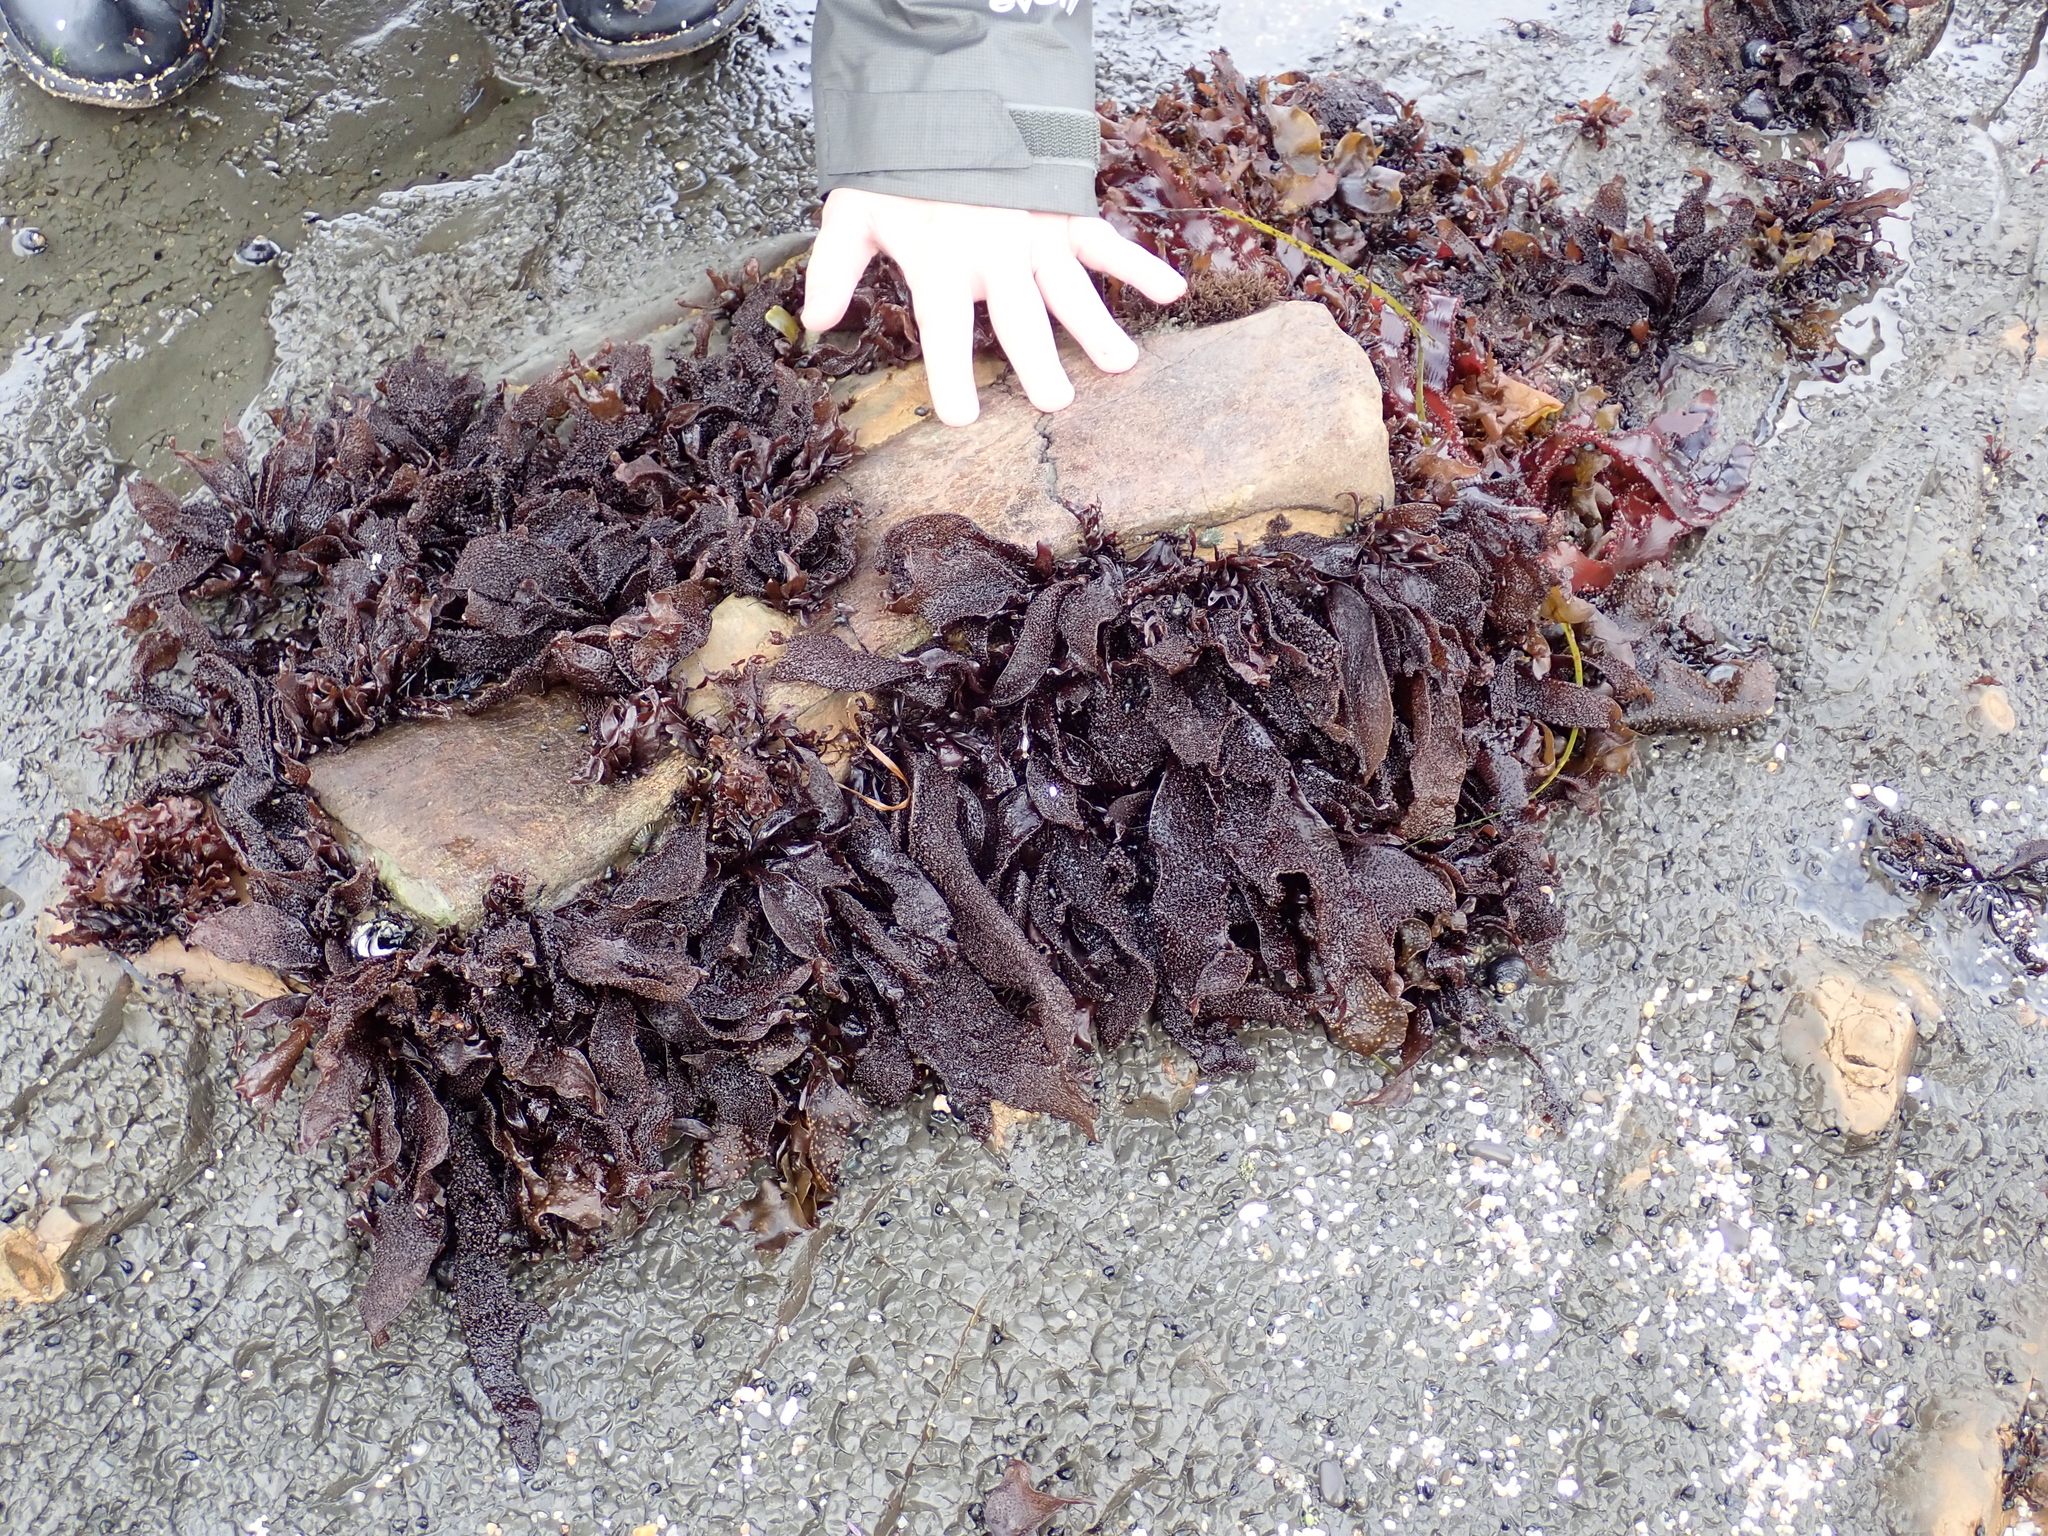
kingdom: Plantae
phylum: Rhodophyta
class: Florideophyceae
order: Gigartinales
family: Phyllophoraceae
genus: Mastocarpus
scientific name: Mastocarpus papillatus
